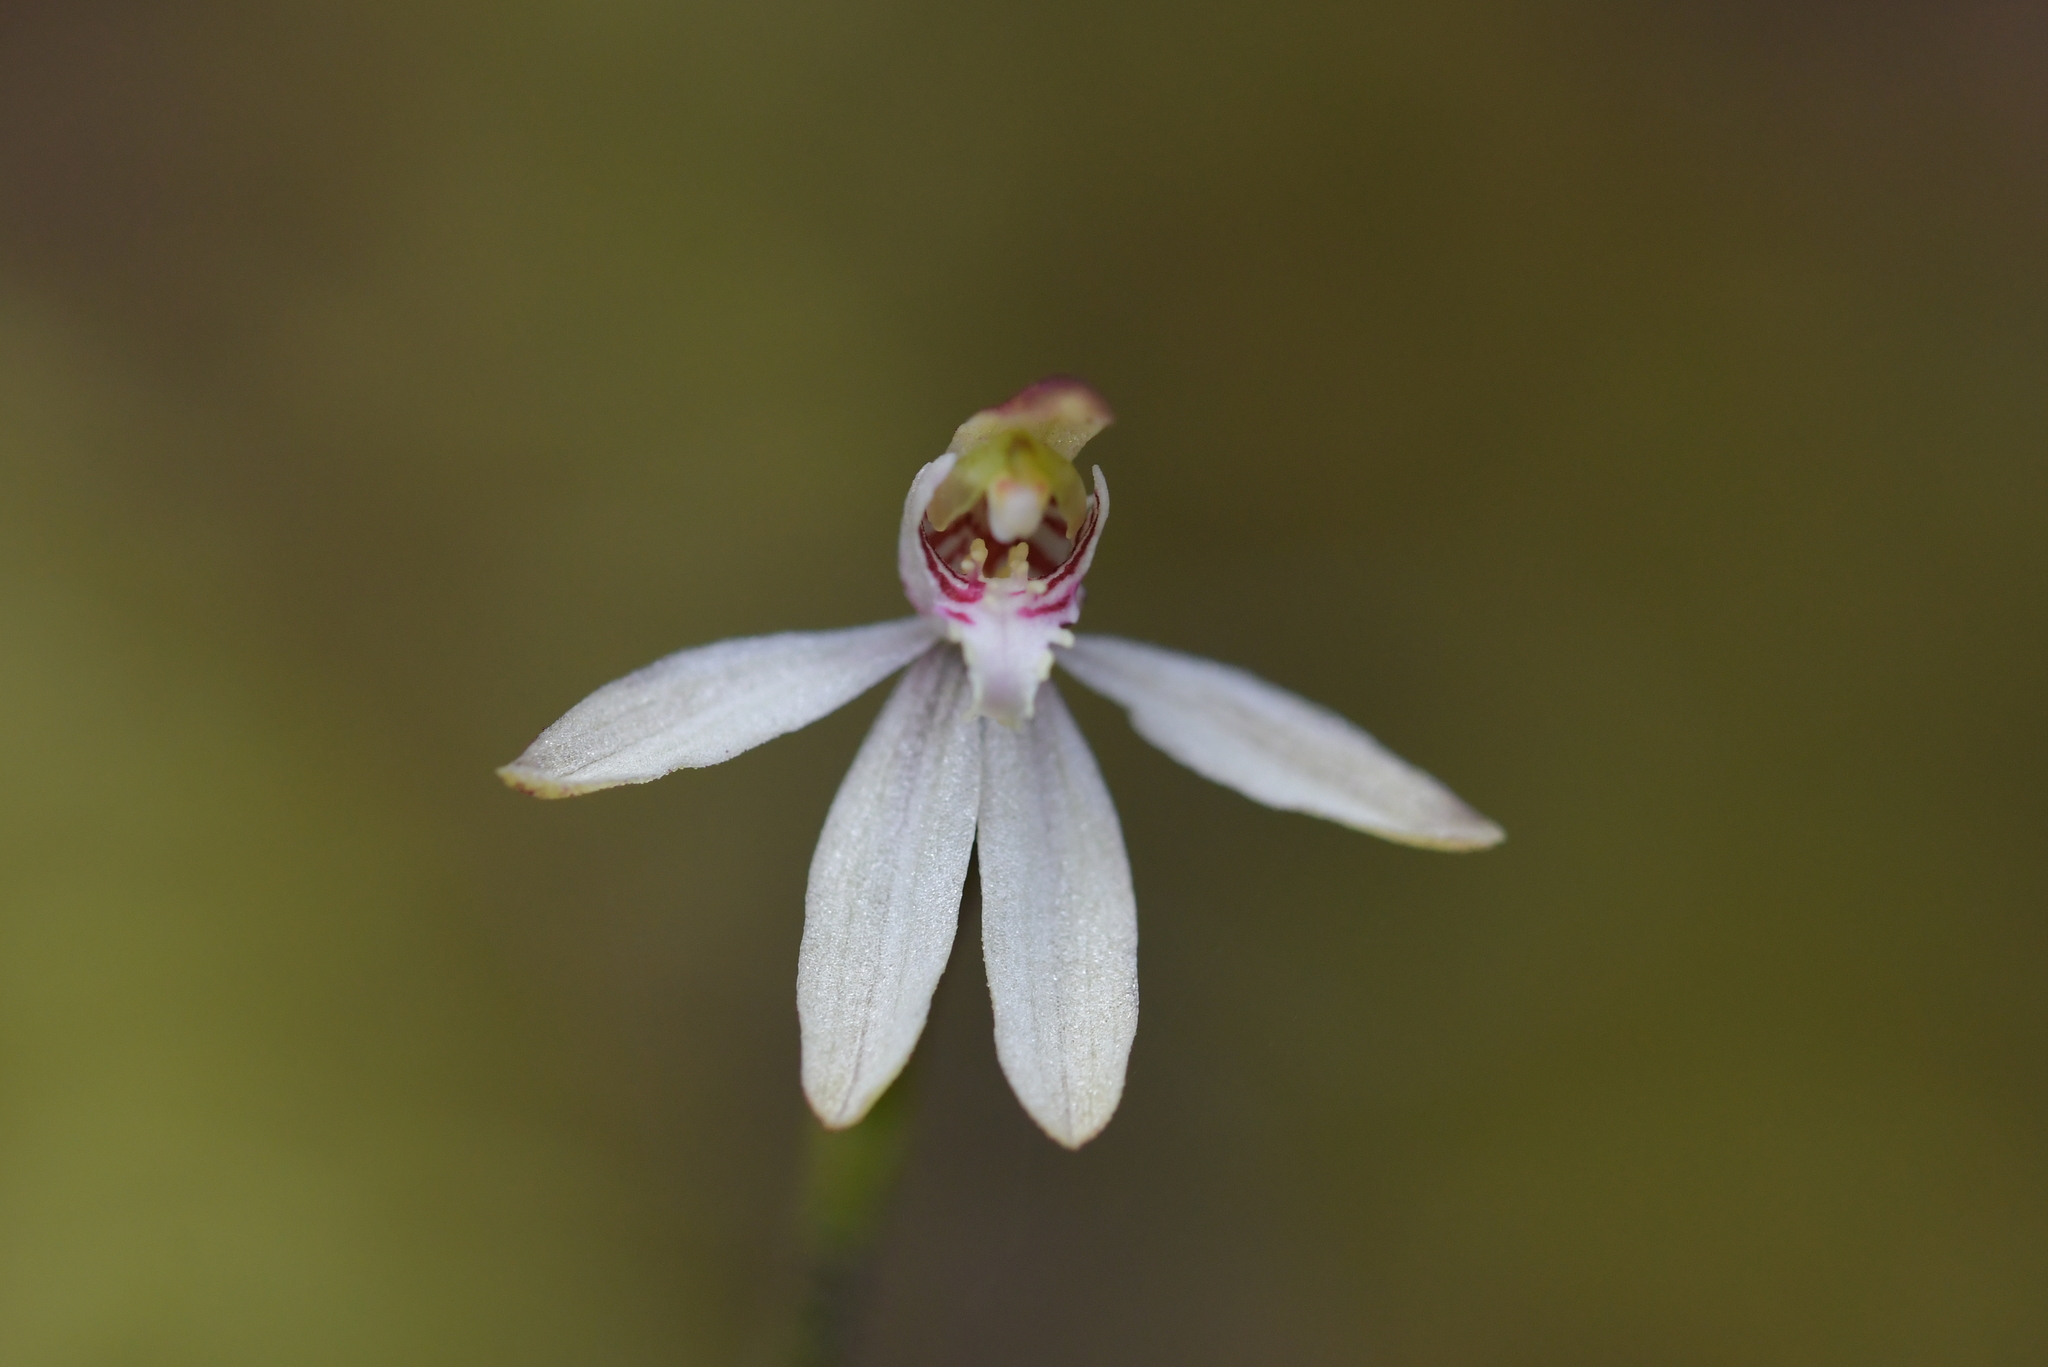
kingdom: Plantae
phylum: Tracheophyta
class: Liliopsida
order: Asparagales
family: Orchidaceae
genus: Caladenia
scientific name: Caladenia chlorostyla
